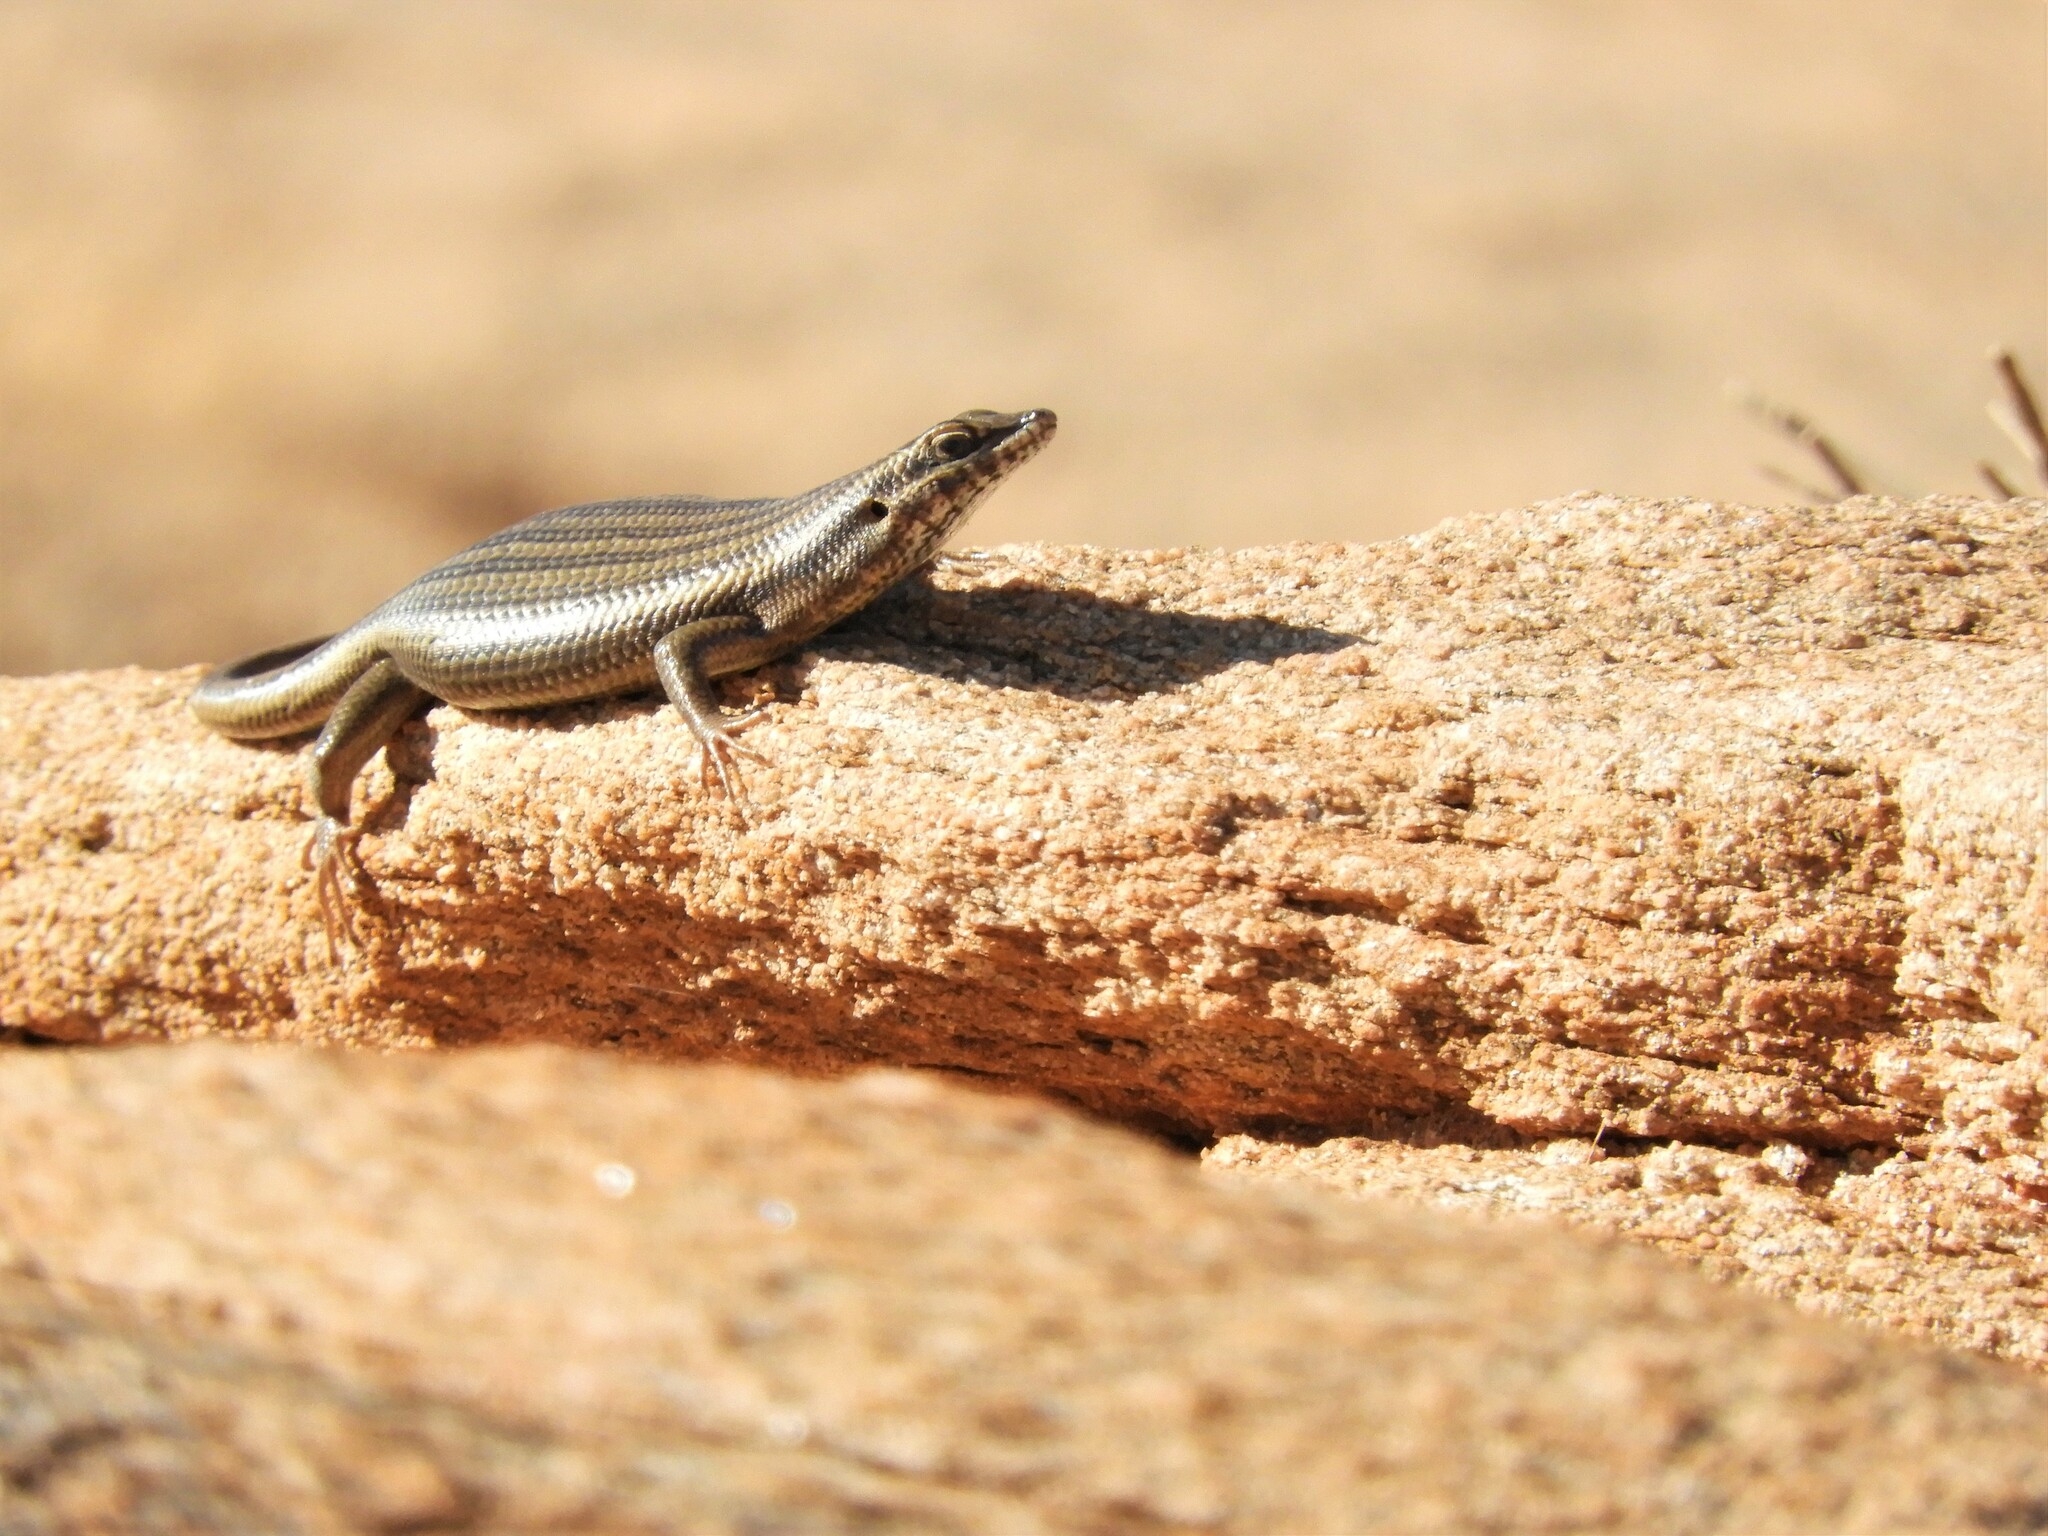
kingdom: Animalia
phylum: Chordata
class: Squamata
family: Scincidae
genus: Trachylepis
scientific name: Trachylepis sulcata
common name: Western rock skink
